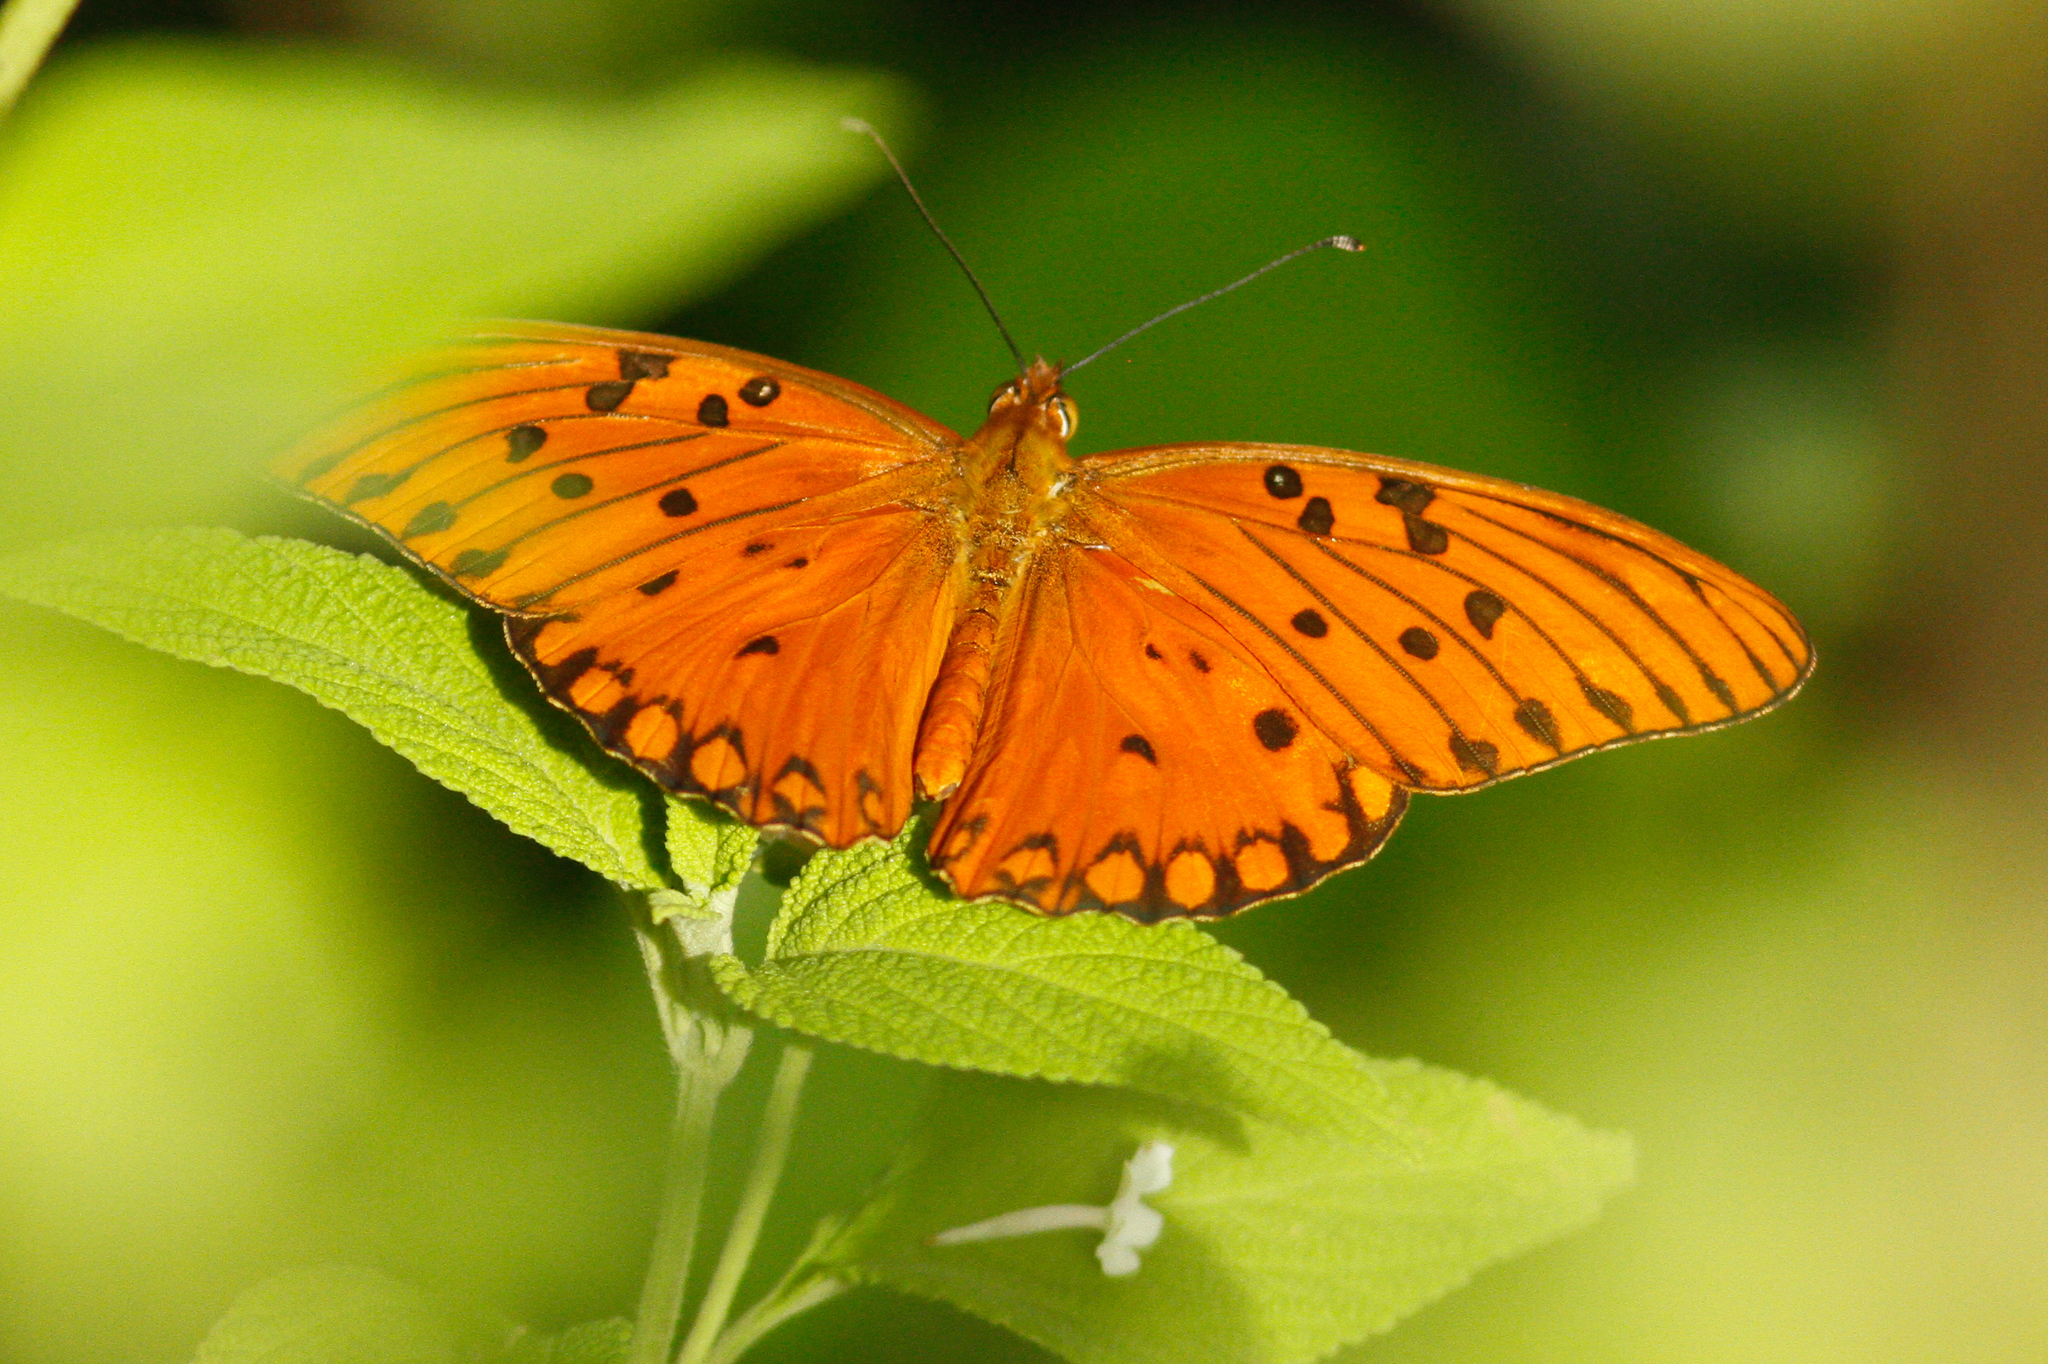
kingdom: Animalia
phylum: Arthropoda
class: Insecta
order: Lepidoptera
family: Nymphalidae
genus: Dione
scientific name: Dione vanillae
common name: Gulf fritillary
